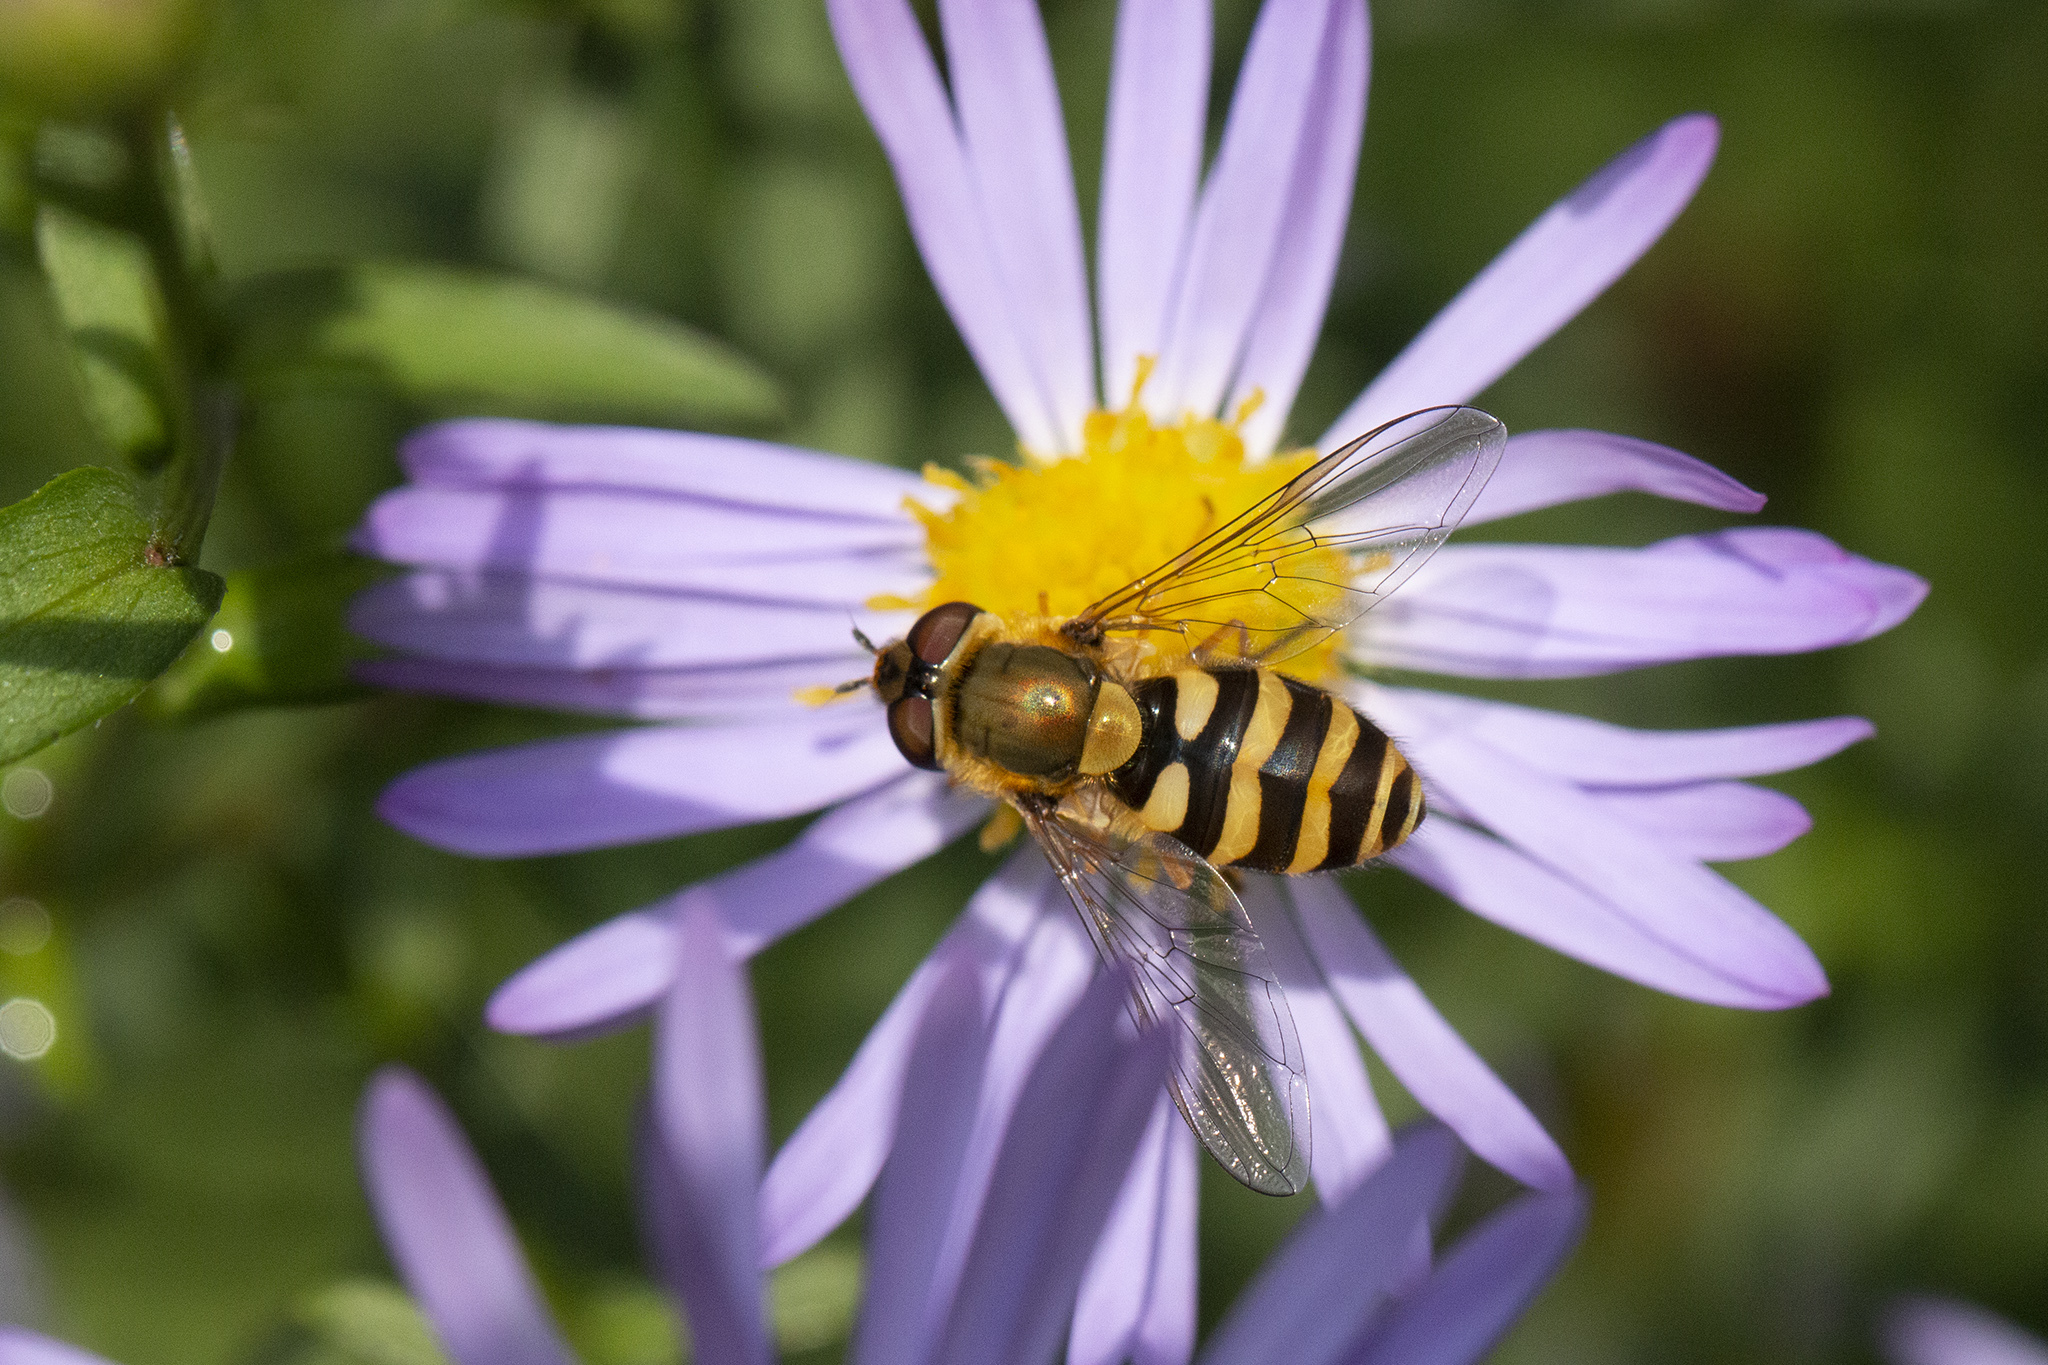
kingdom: Animalia
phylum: Arthropoda
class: Insecta
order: Diptera
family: Syrphidae
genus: Syrphus
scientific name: Syrphus
